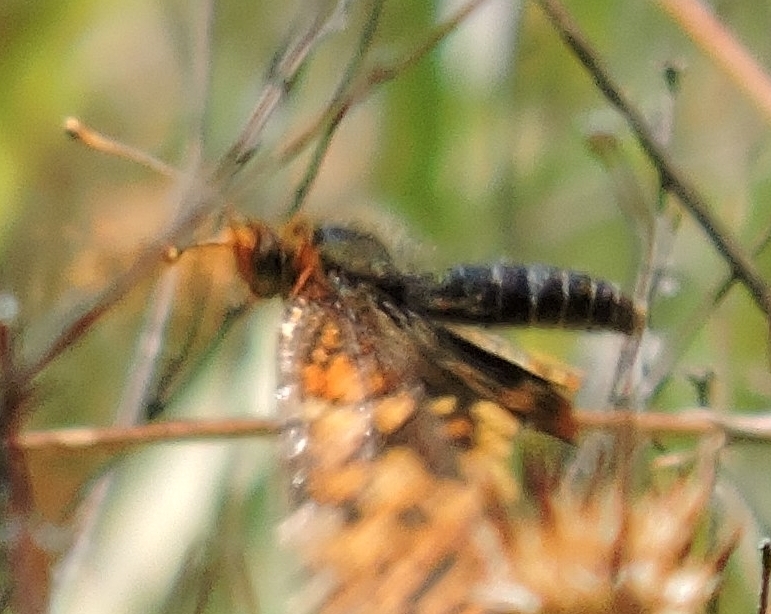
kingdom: Animalia
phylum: Arthropoda
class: Insecta
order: Lepidoptera
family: Nymphalidae
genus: Chlosyne
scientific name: Chlosyne palla
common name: Northern checkerspot
